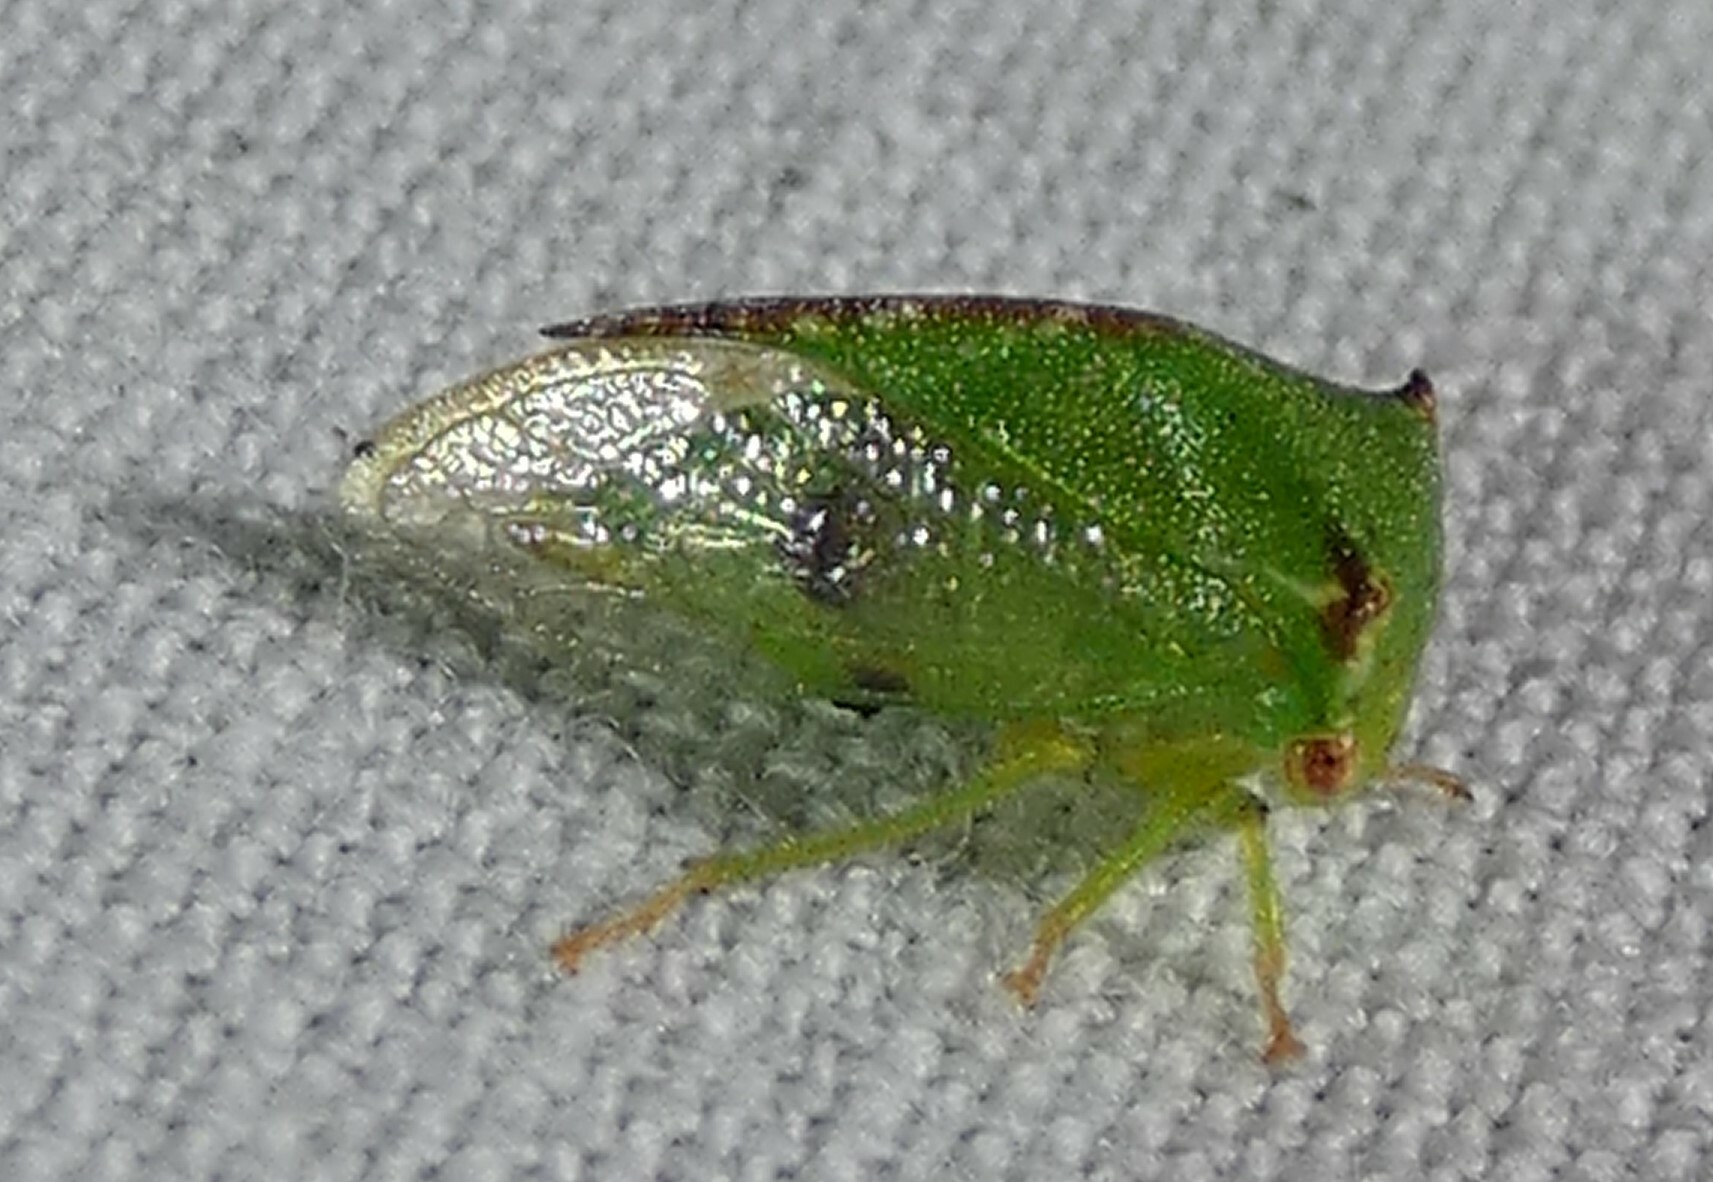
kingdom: Animalia
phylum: Arthropoda
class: Insecta
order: Hemiptera
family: Membracidae
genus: Stictocephala
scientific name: Stictocephala militaris
